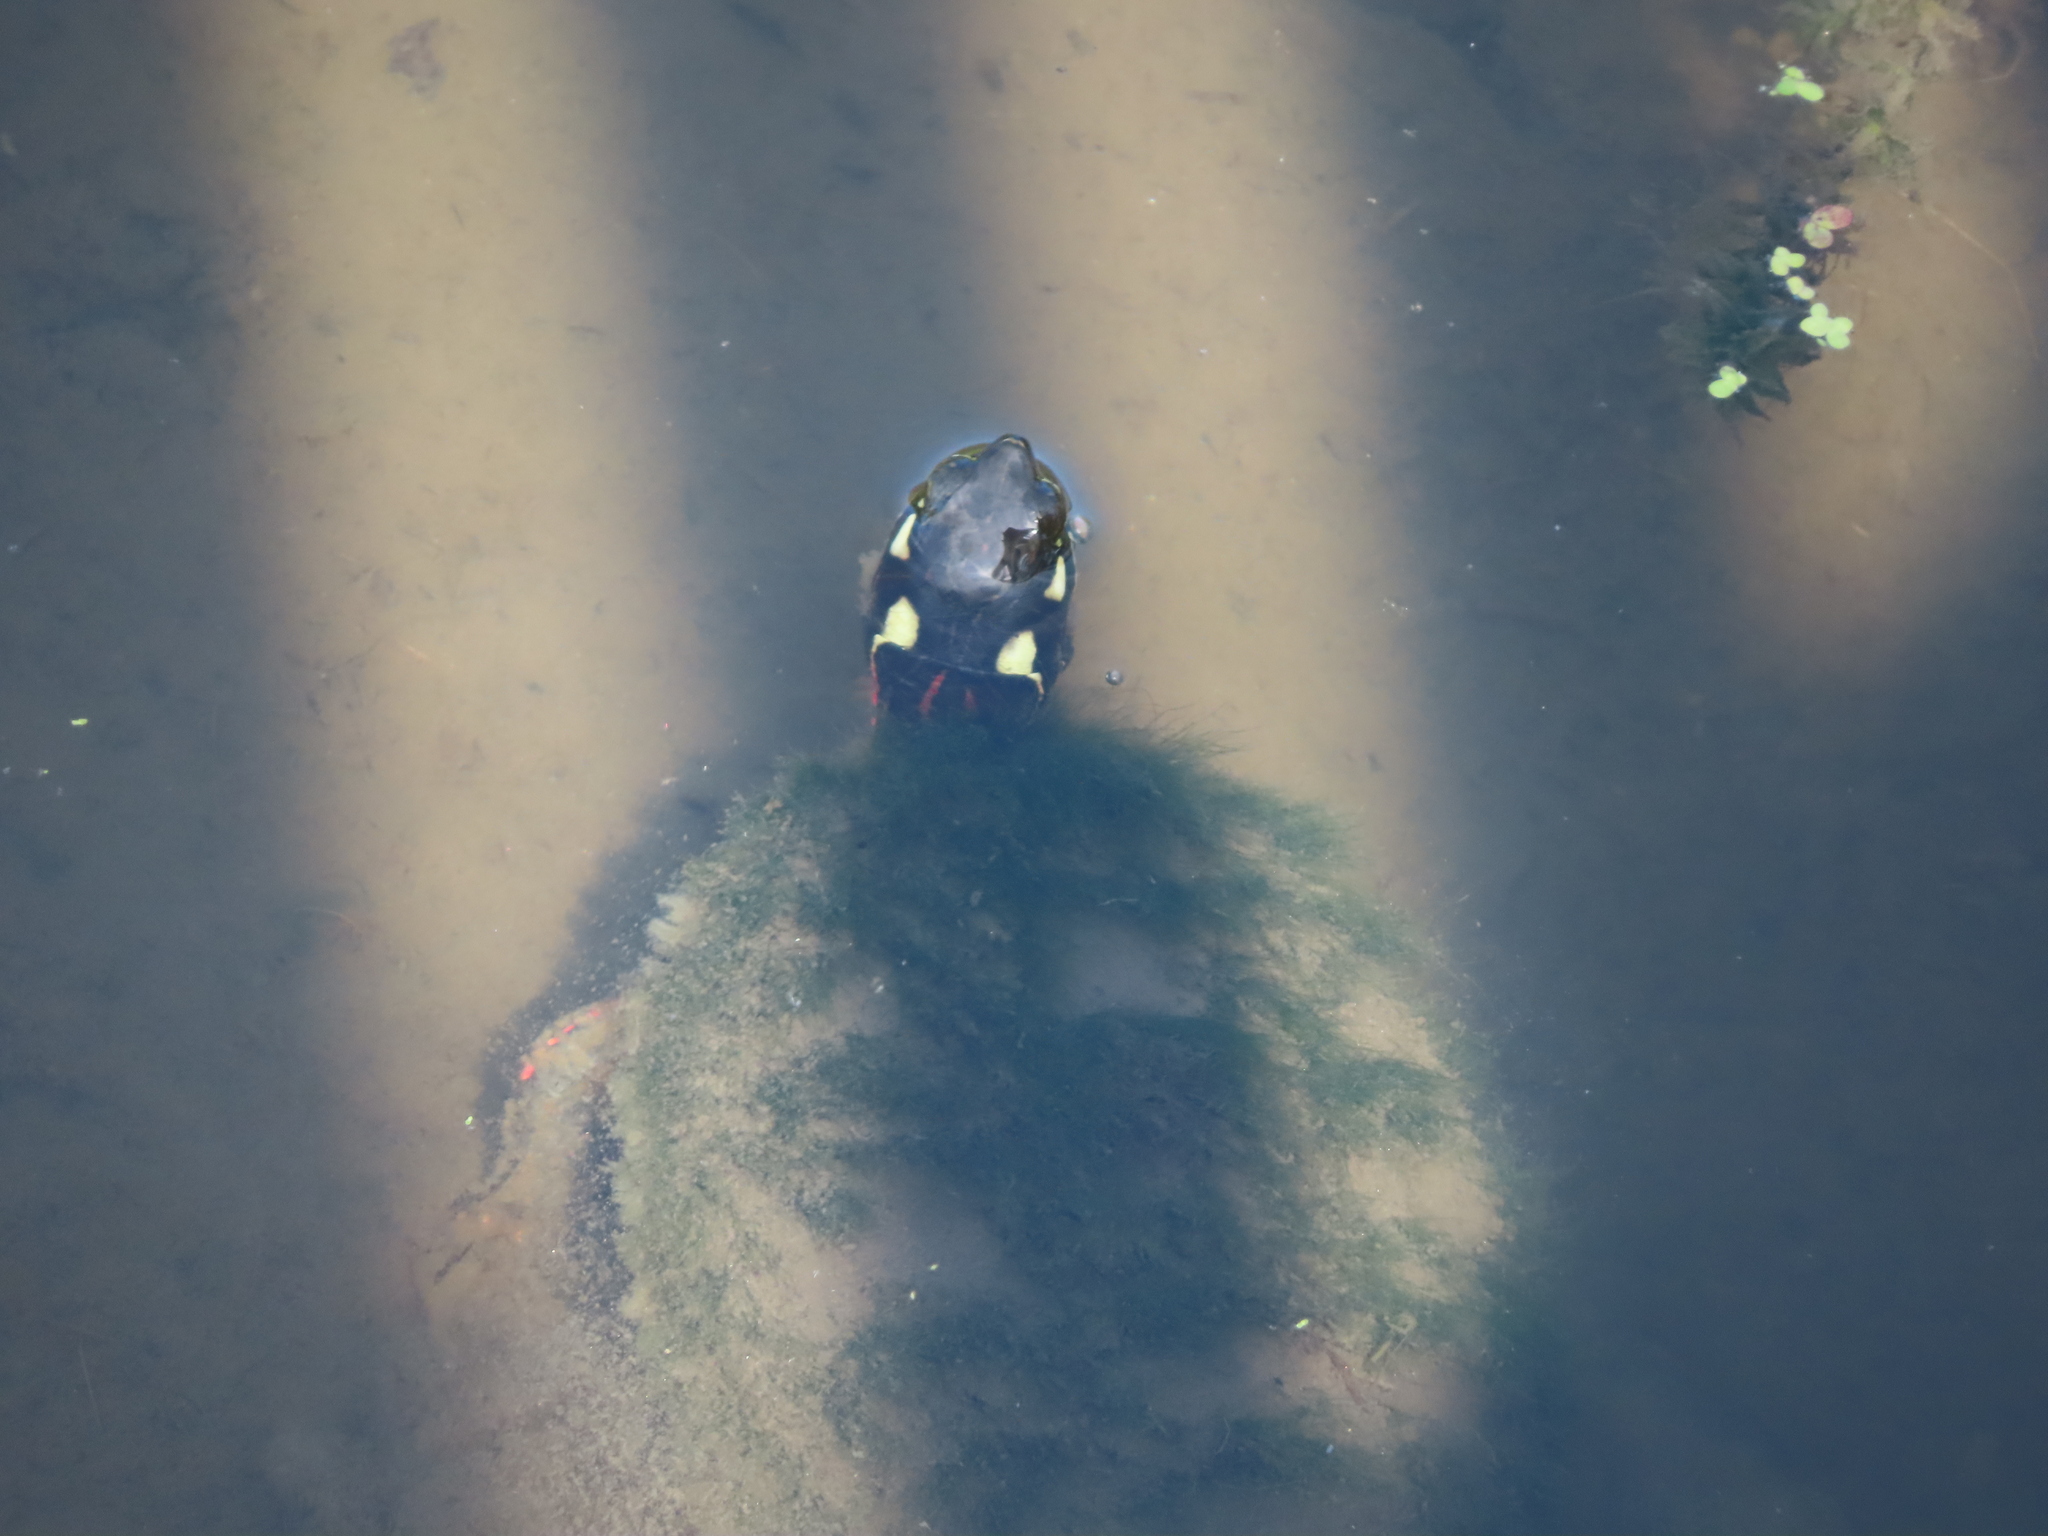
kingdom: Animalia
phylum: Chordata
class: Testudines
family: Emydidae
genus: Chrysemys
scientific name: Chrysemys picta
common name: Painted turtle
